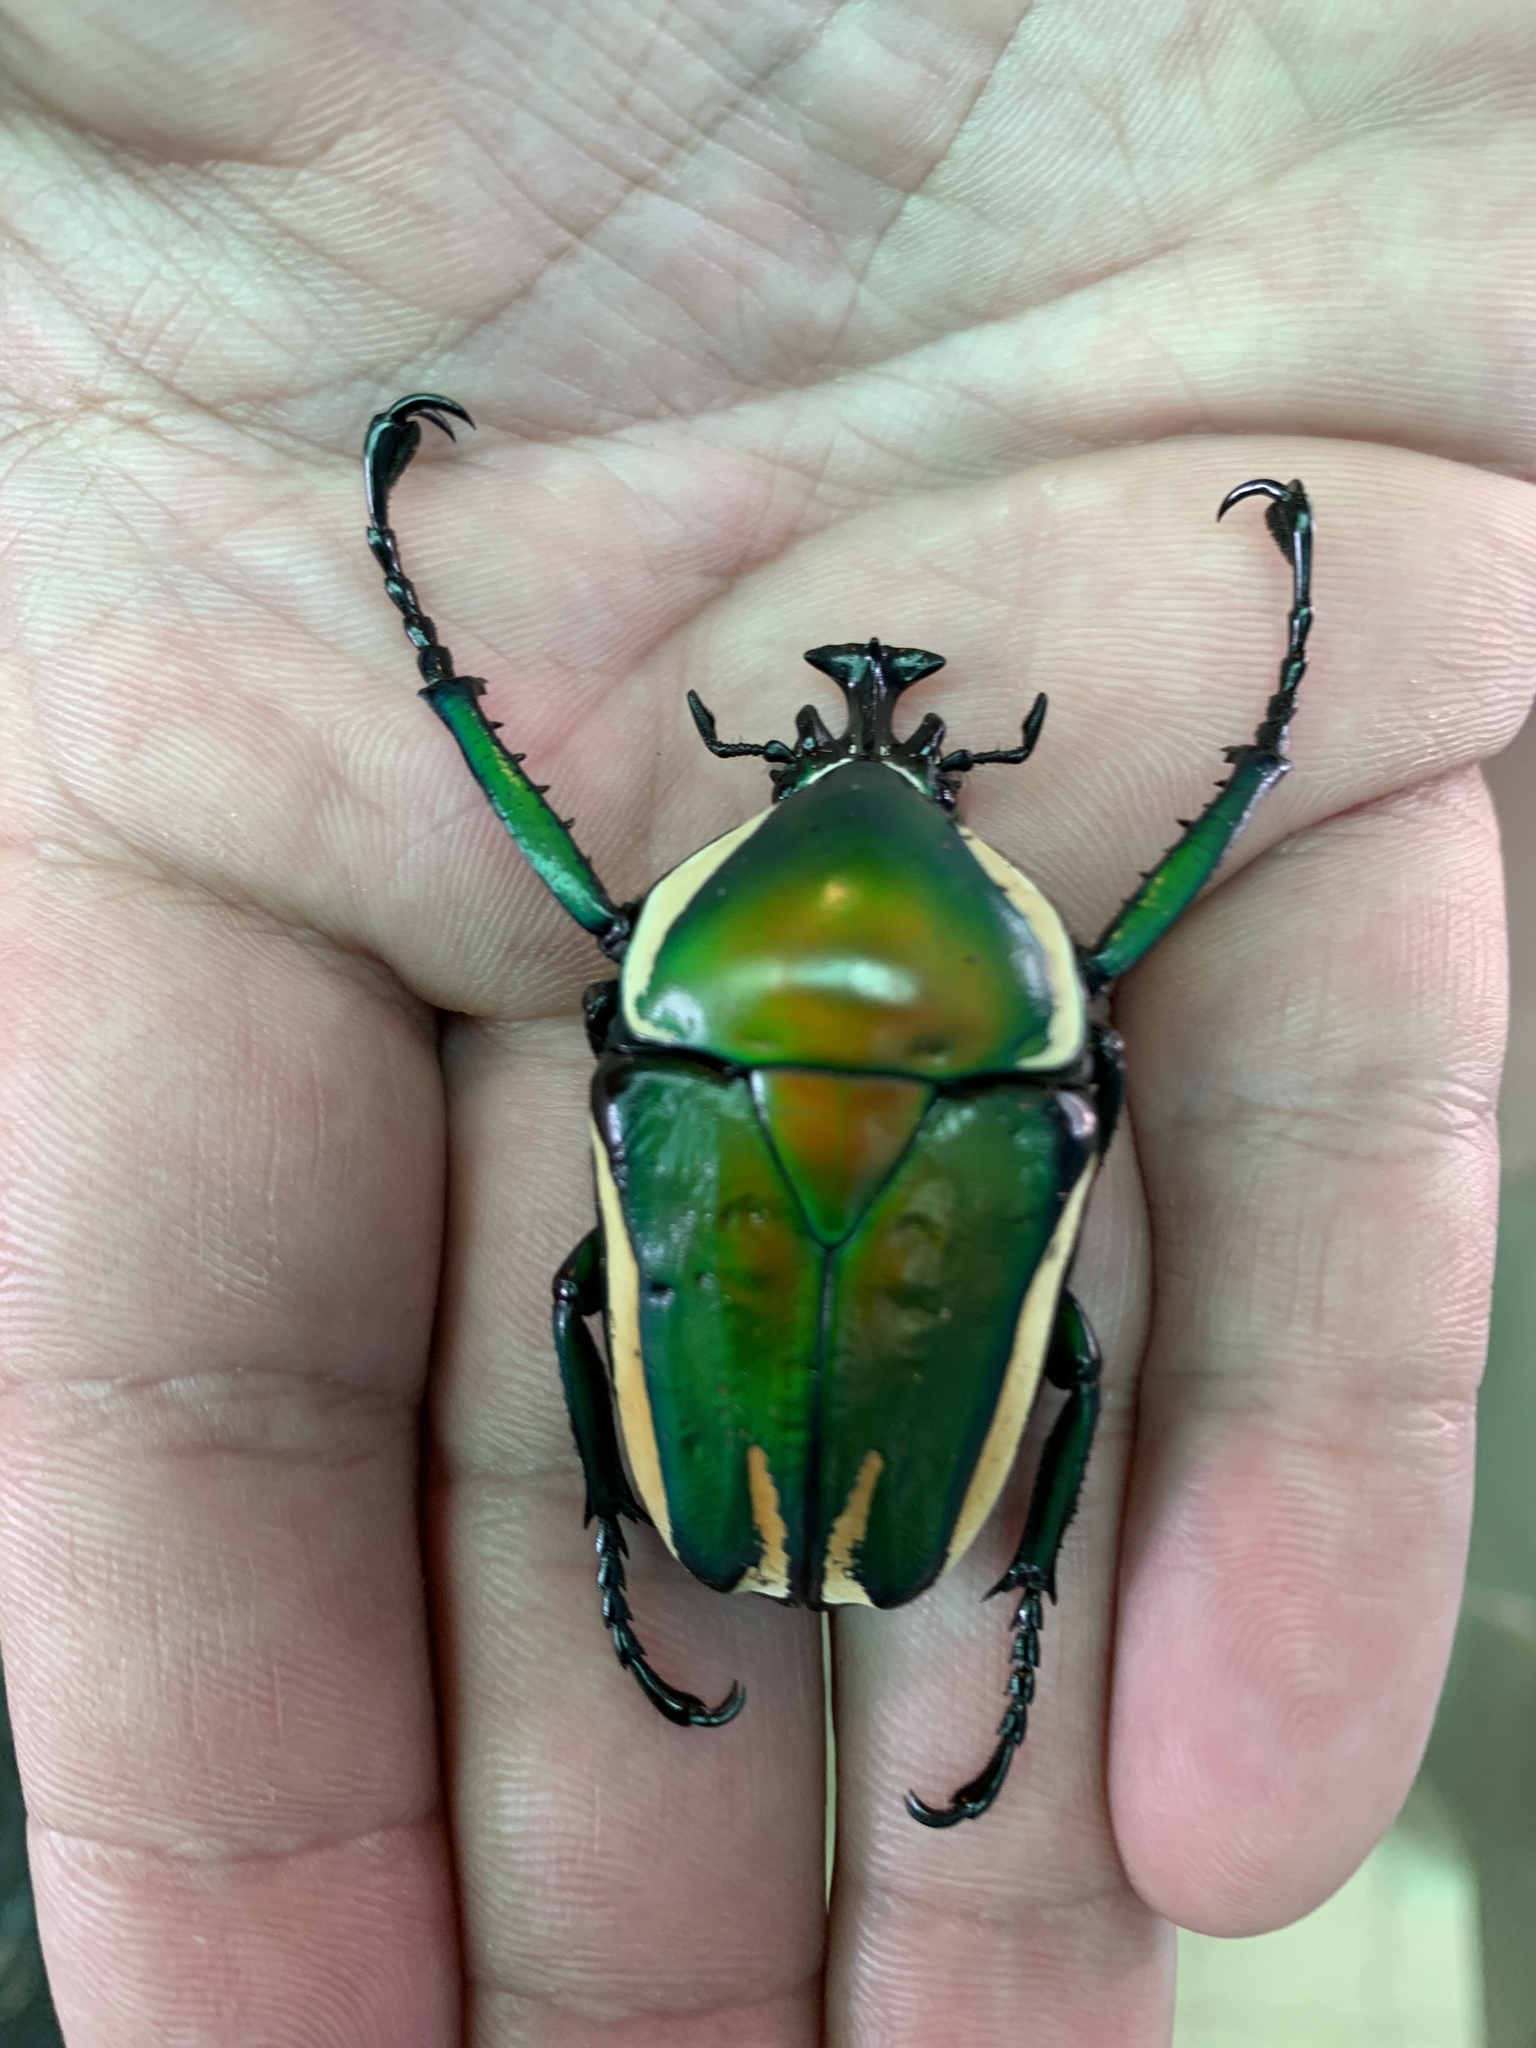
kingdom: Animalia
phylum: Arthropoda
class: Insecta
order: Coleoptera
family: Scarabaeidae
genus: Dicronorhina
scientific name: Dicronorhina derbyana
